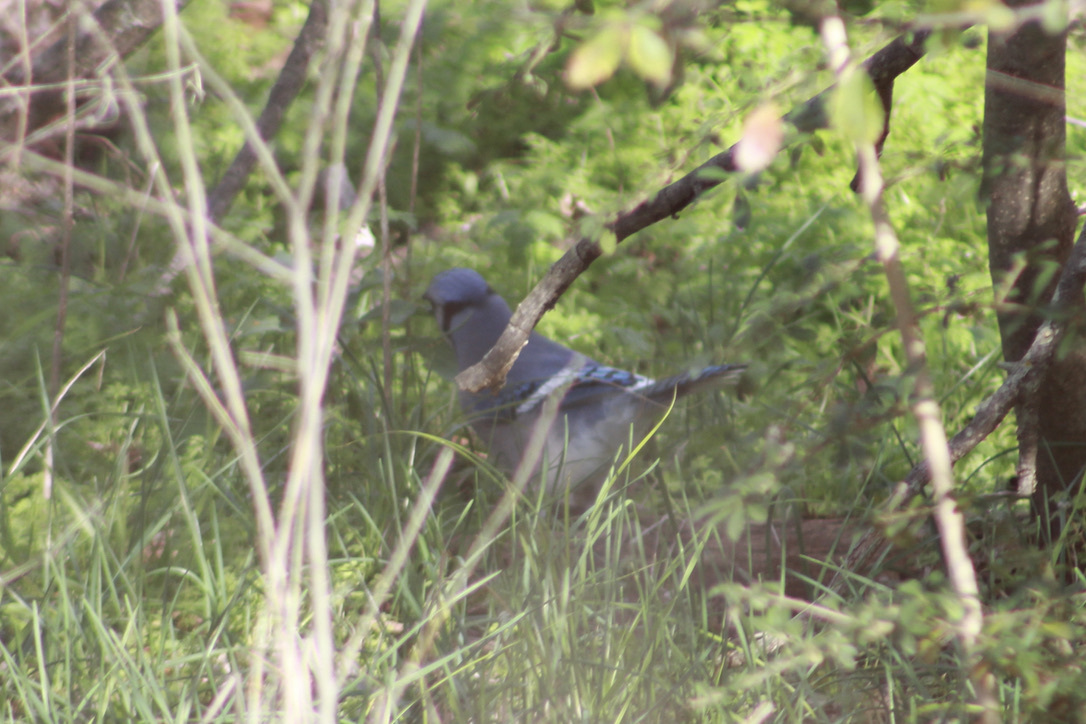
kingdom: Animalia
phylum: Chordata
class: Aves
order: Passeriformes
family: Corvidae
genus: Cyanocitta
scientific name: Cyanocitta cristata
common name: Blue jay
